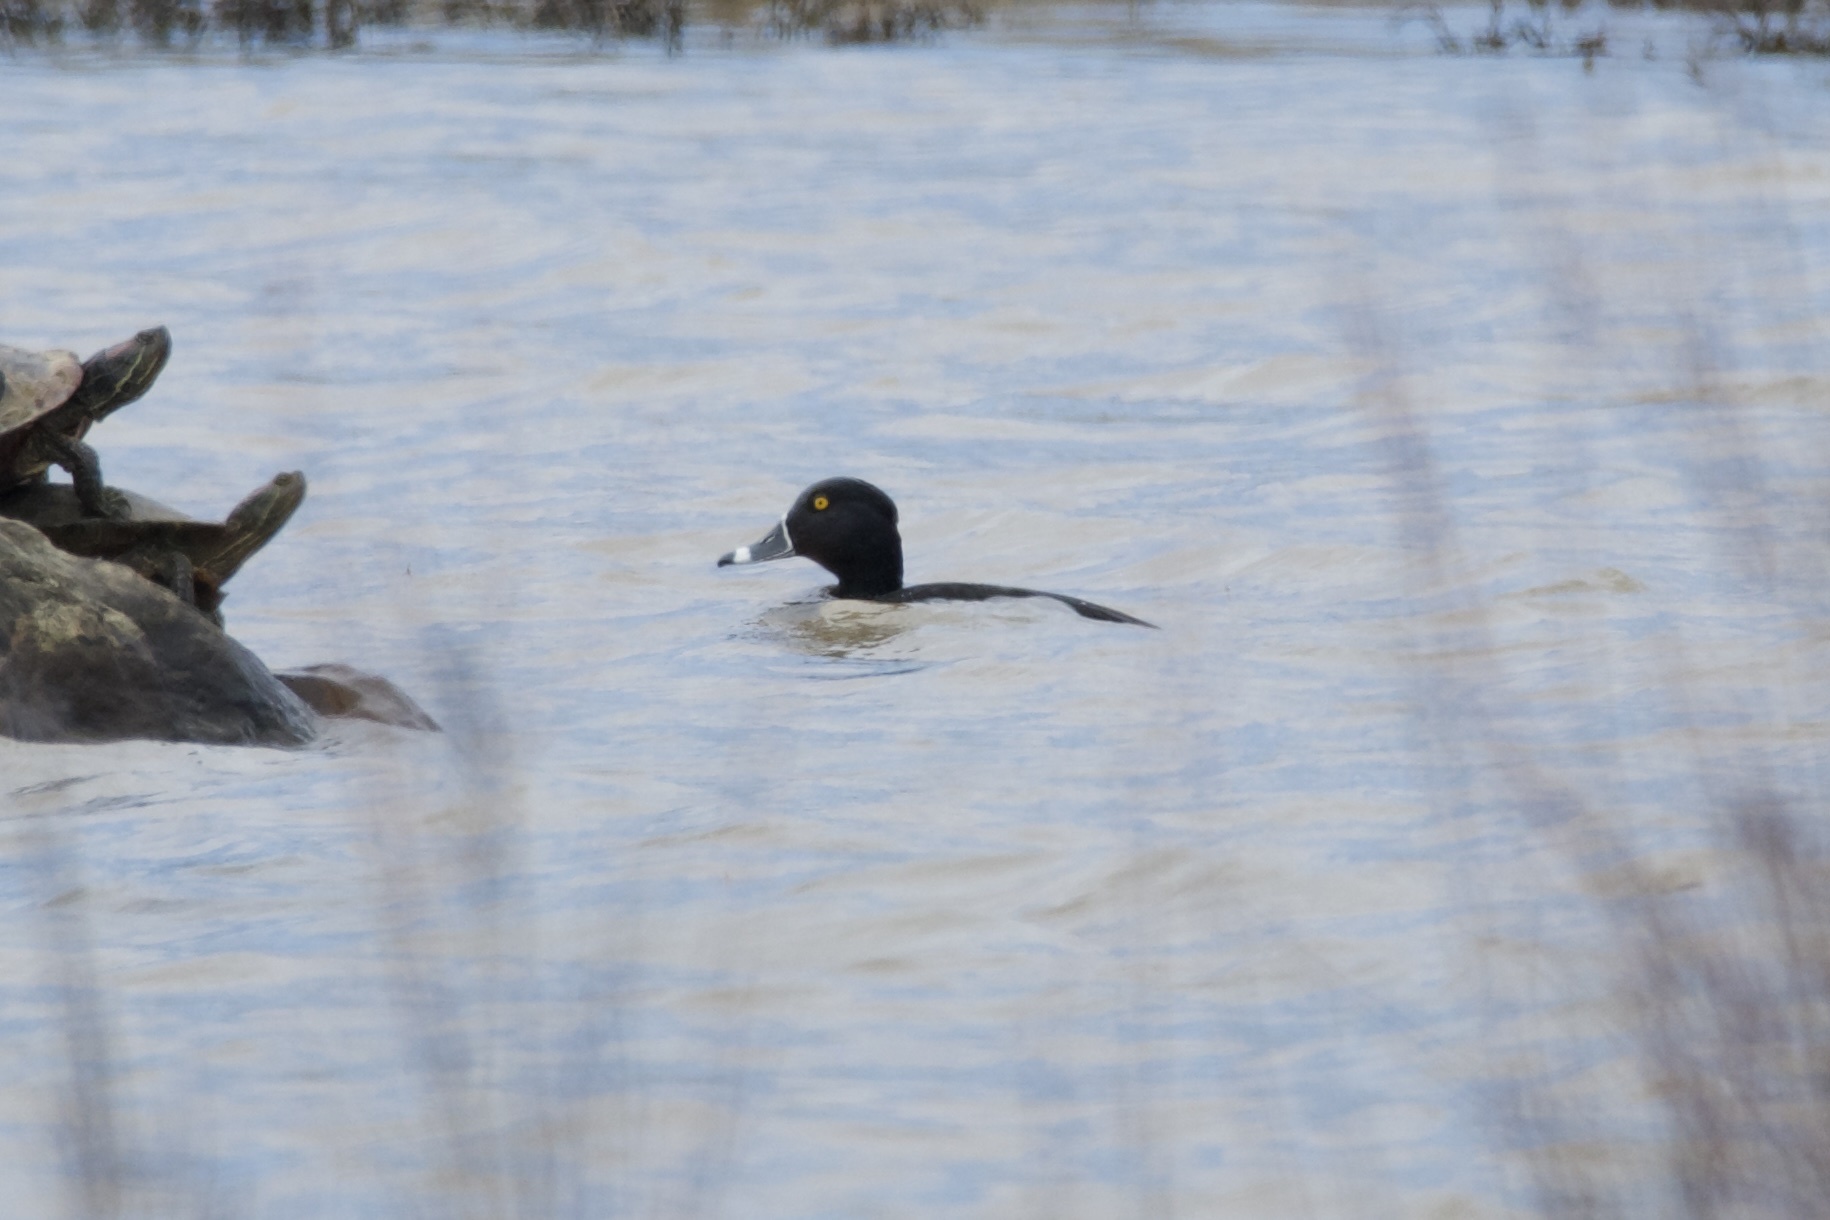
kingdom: Animalia
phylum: Chordata
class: Aves
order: Anseriformes
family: Anatidae
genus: Aythya
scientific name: Aythya collaris
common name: Ring-necked duck
